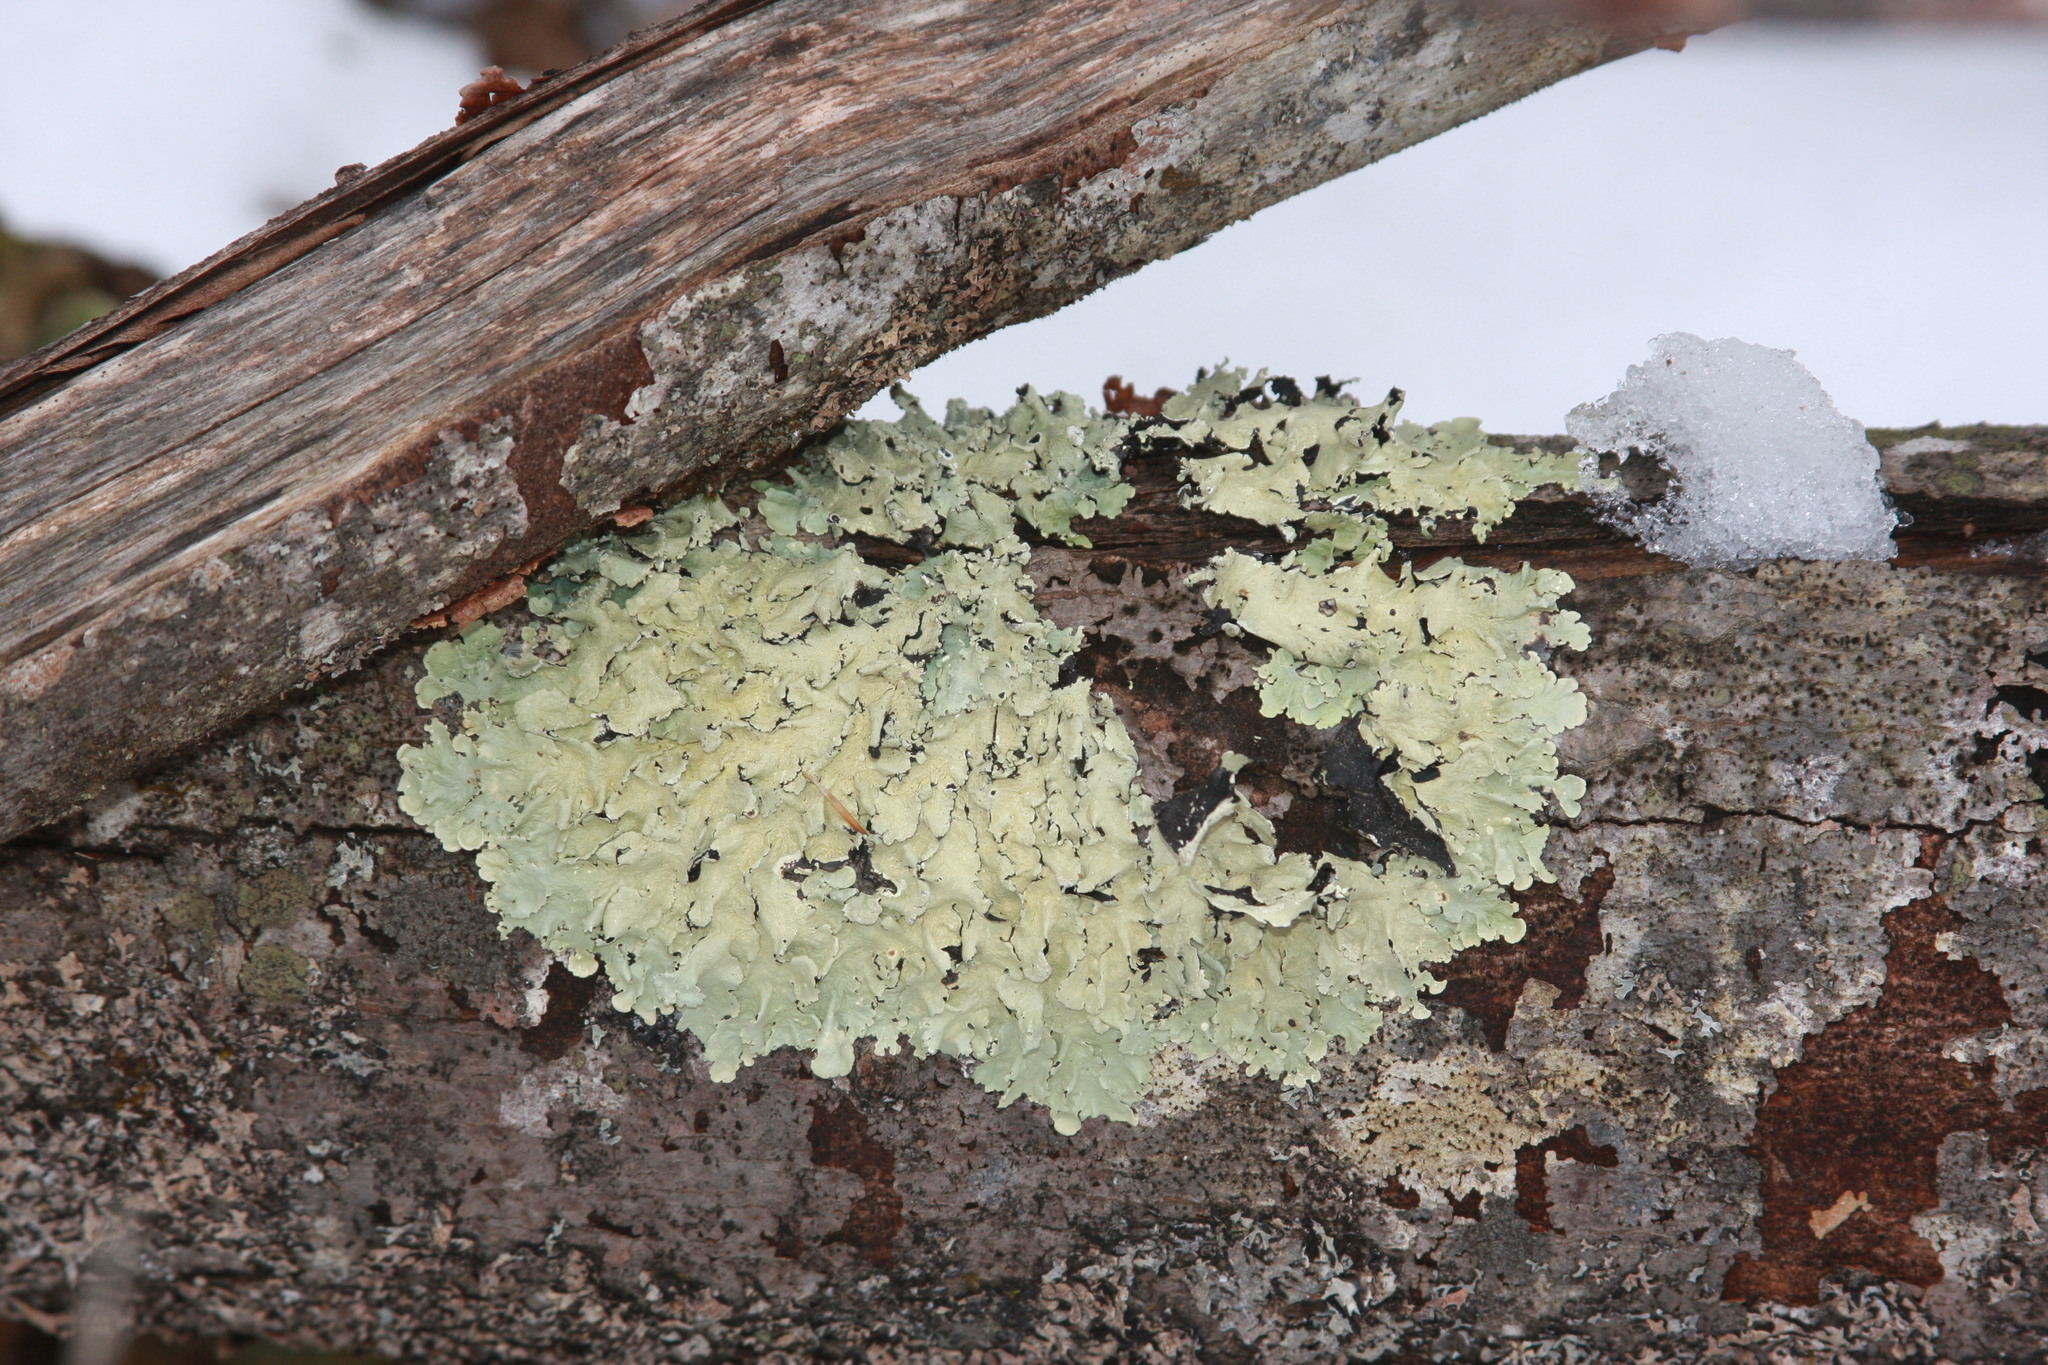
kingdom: Fungi
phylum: Ascomycota
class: Lecanoromycetes
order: Lecanorales
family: Parmeliaceae
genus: Flavoparmelia
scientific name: Flavoparmelia caperata
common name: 40-mile per hour lichen
